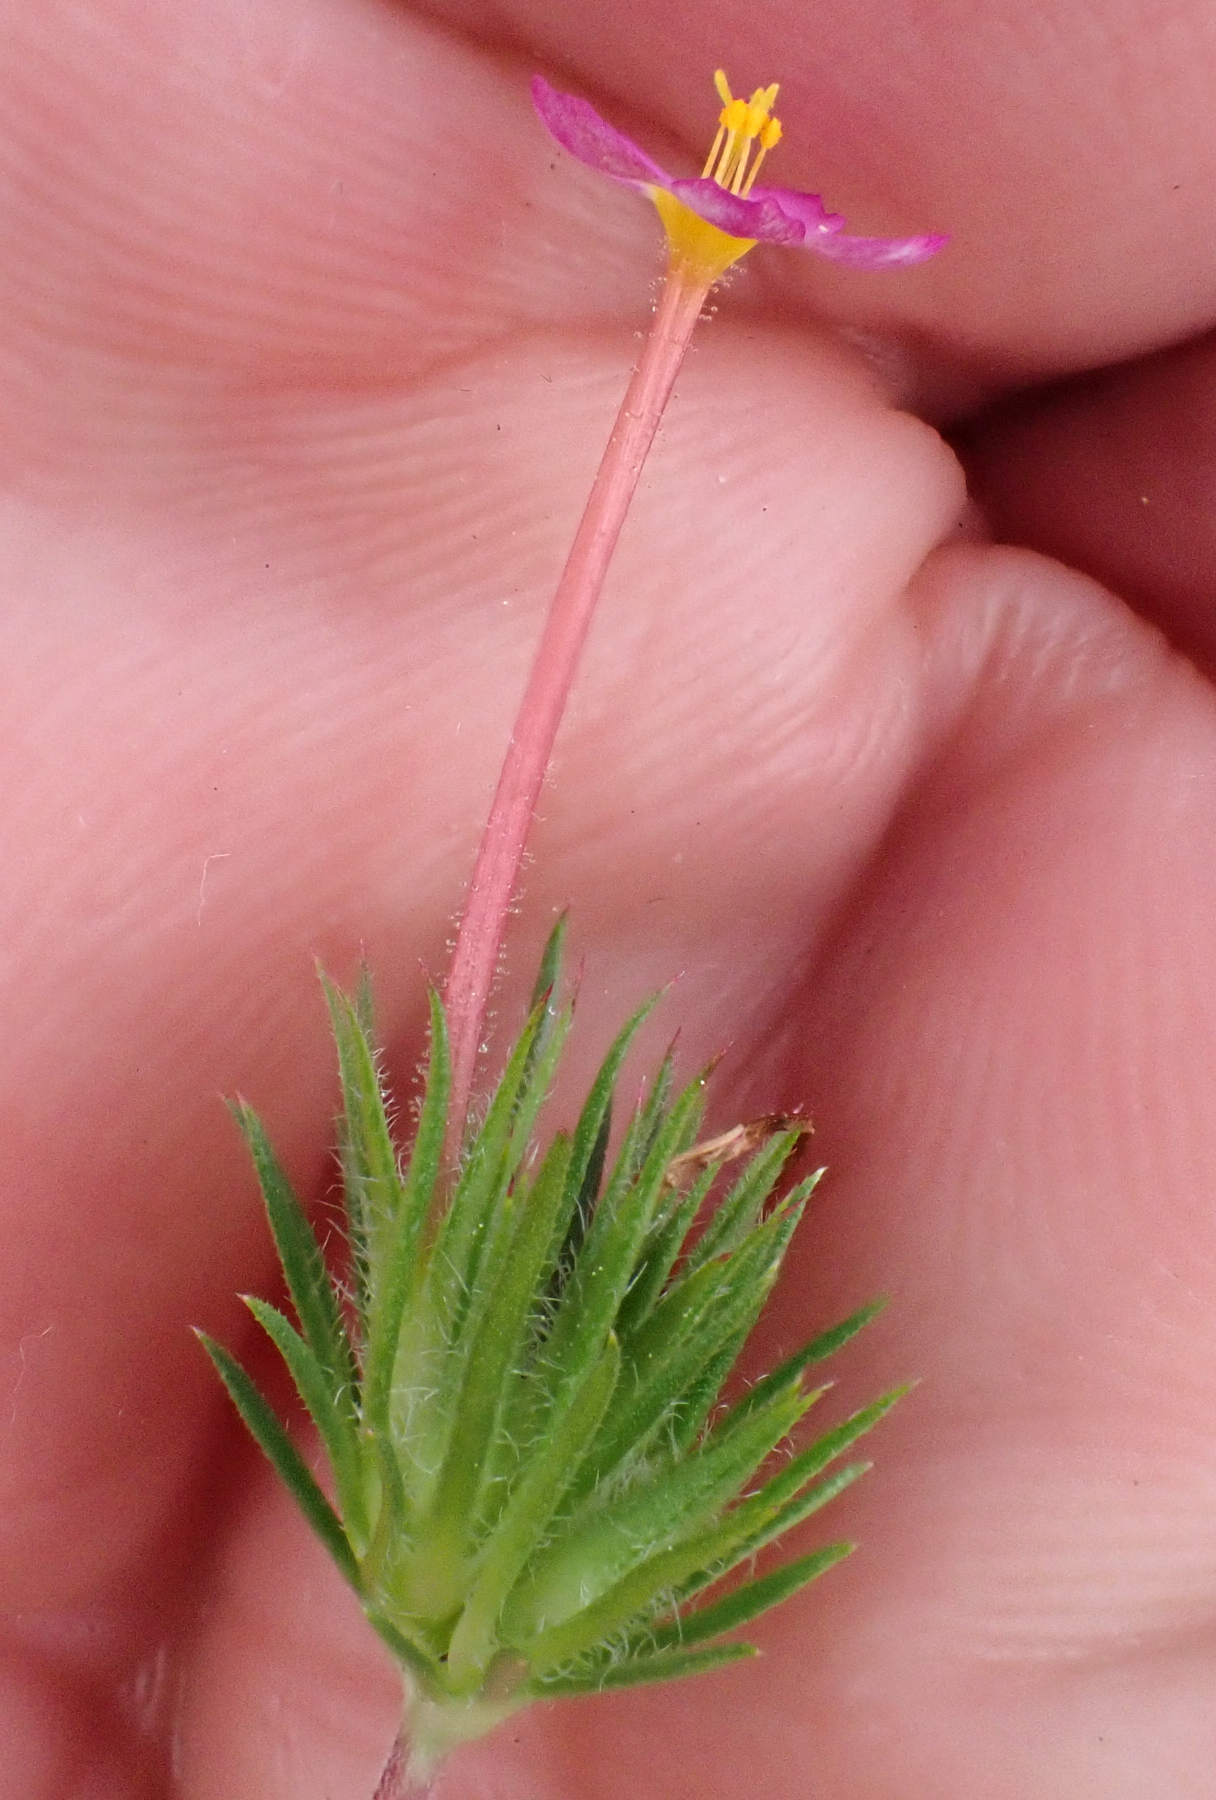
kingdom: Plantae
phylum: Tracheophyta
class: Magnoliopsida
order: Ericales
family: Polemoniaceae
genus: Leptosiphon
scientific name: Leptosiphon bicolor
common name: True babystars
